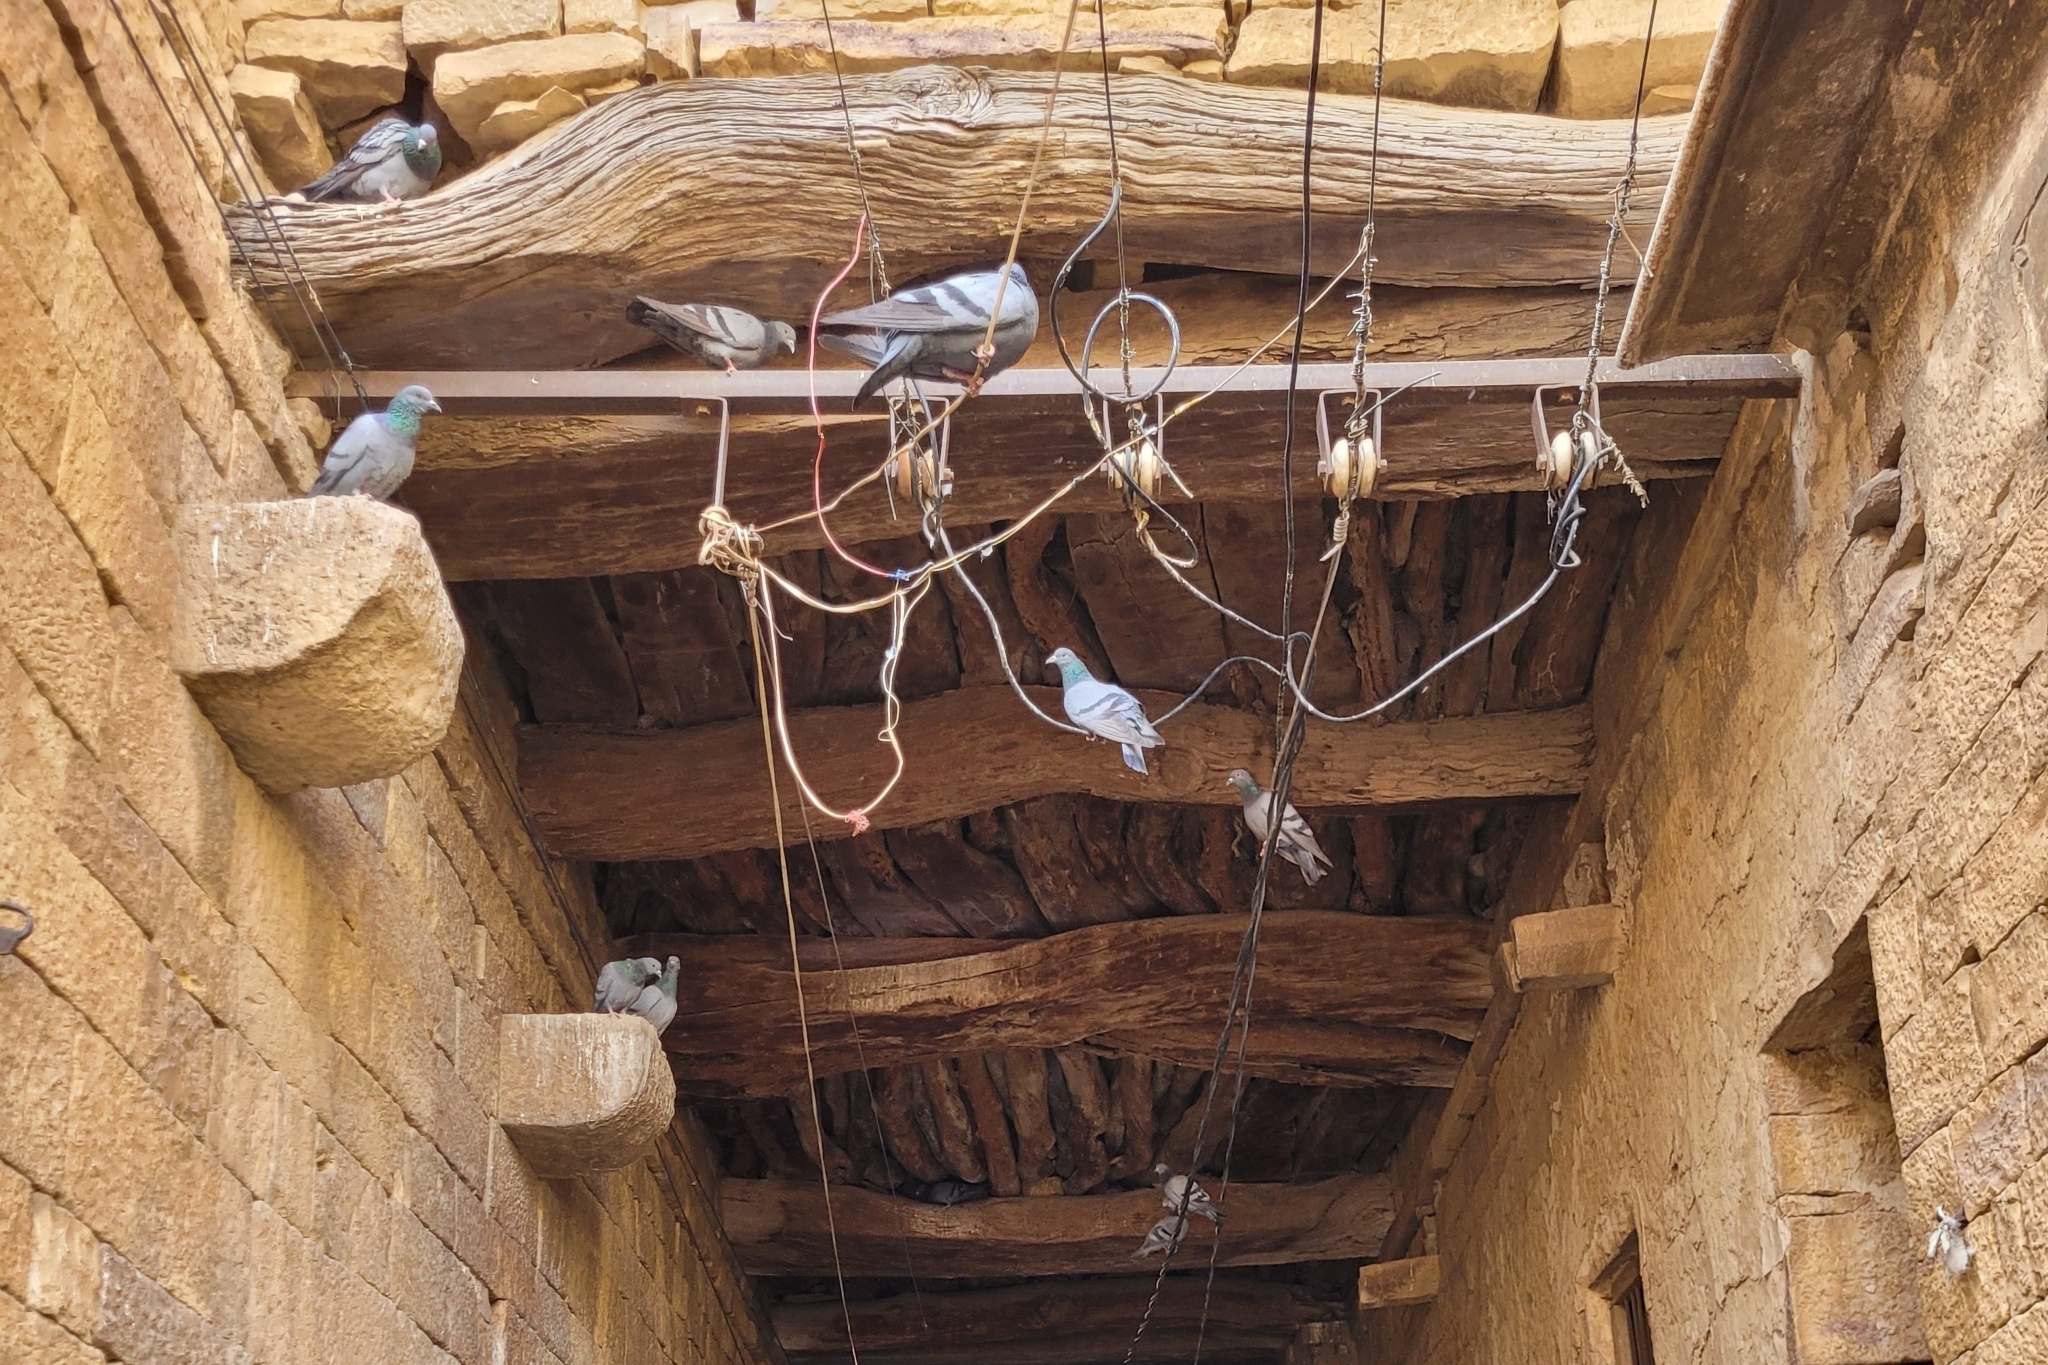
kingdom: Animalia
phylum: Chordata
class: Aves
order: Columbiformes
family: Columbidae
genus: Columba
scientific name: Columba livia
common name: Rock pigeon
